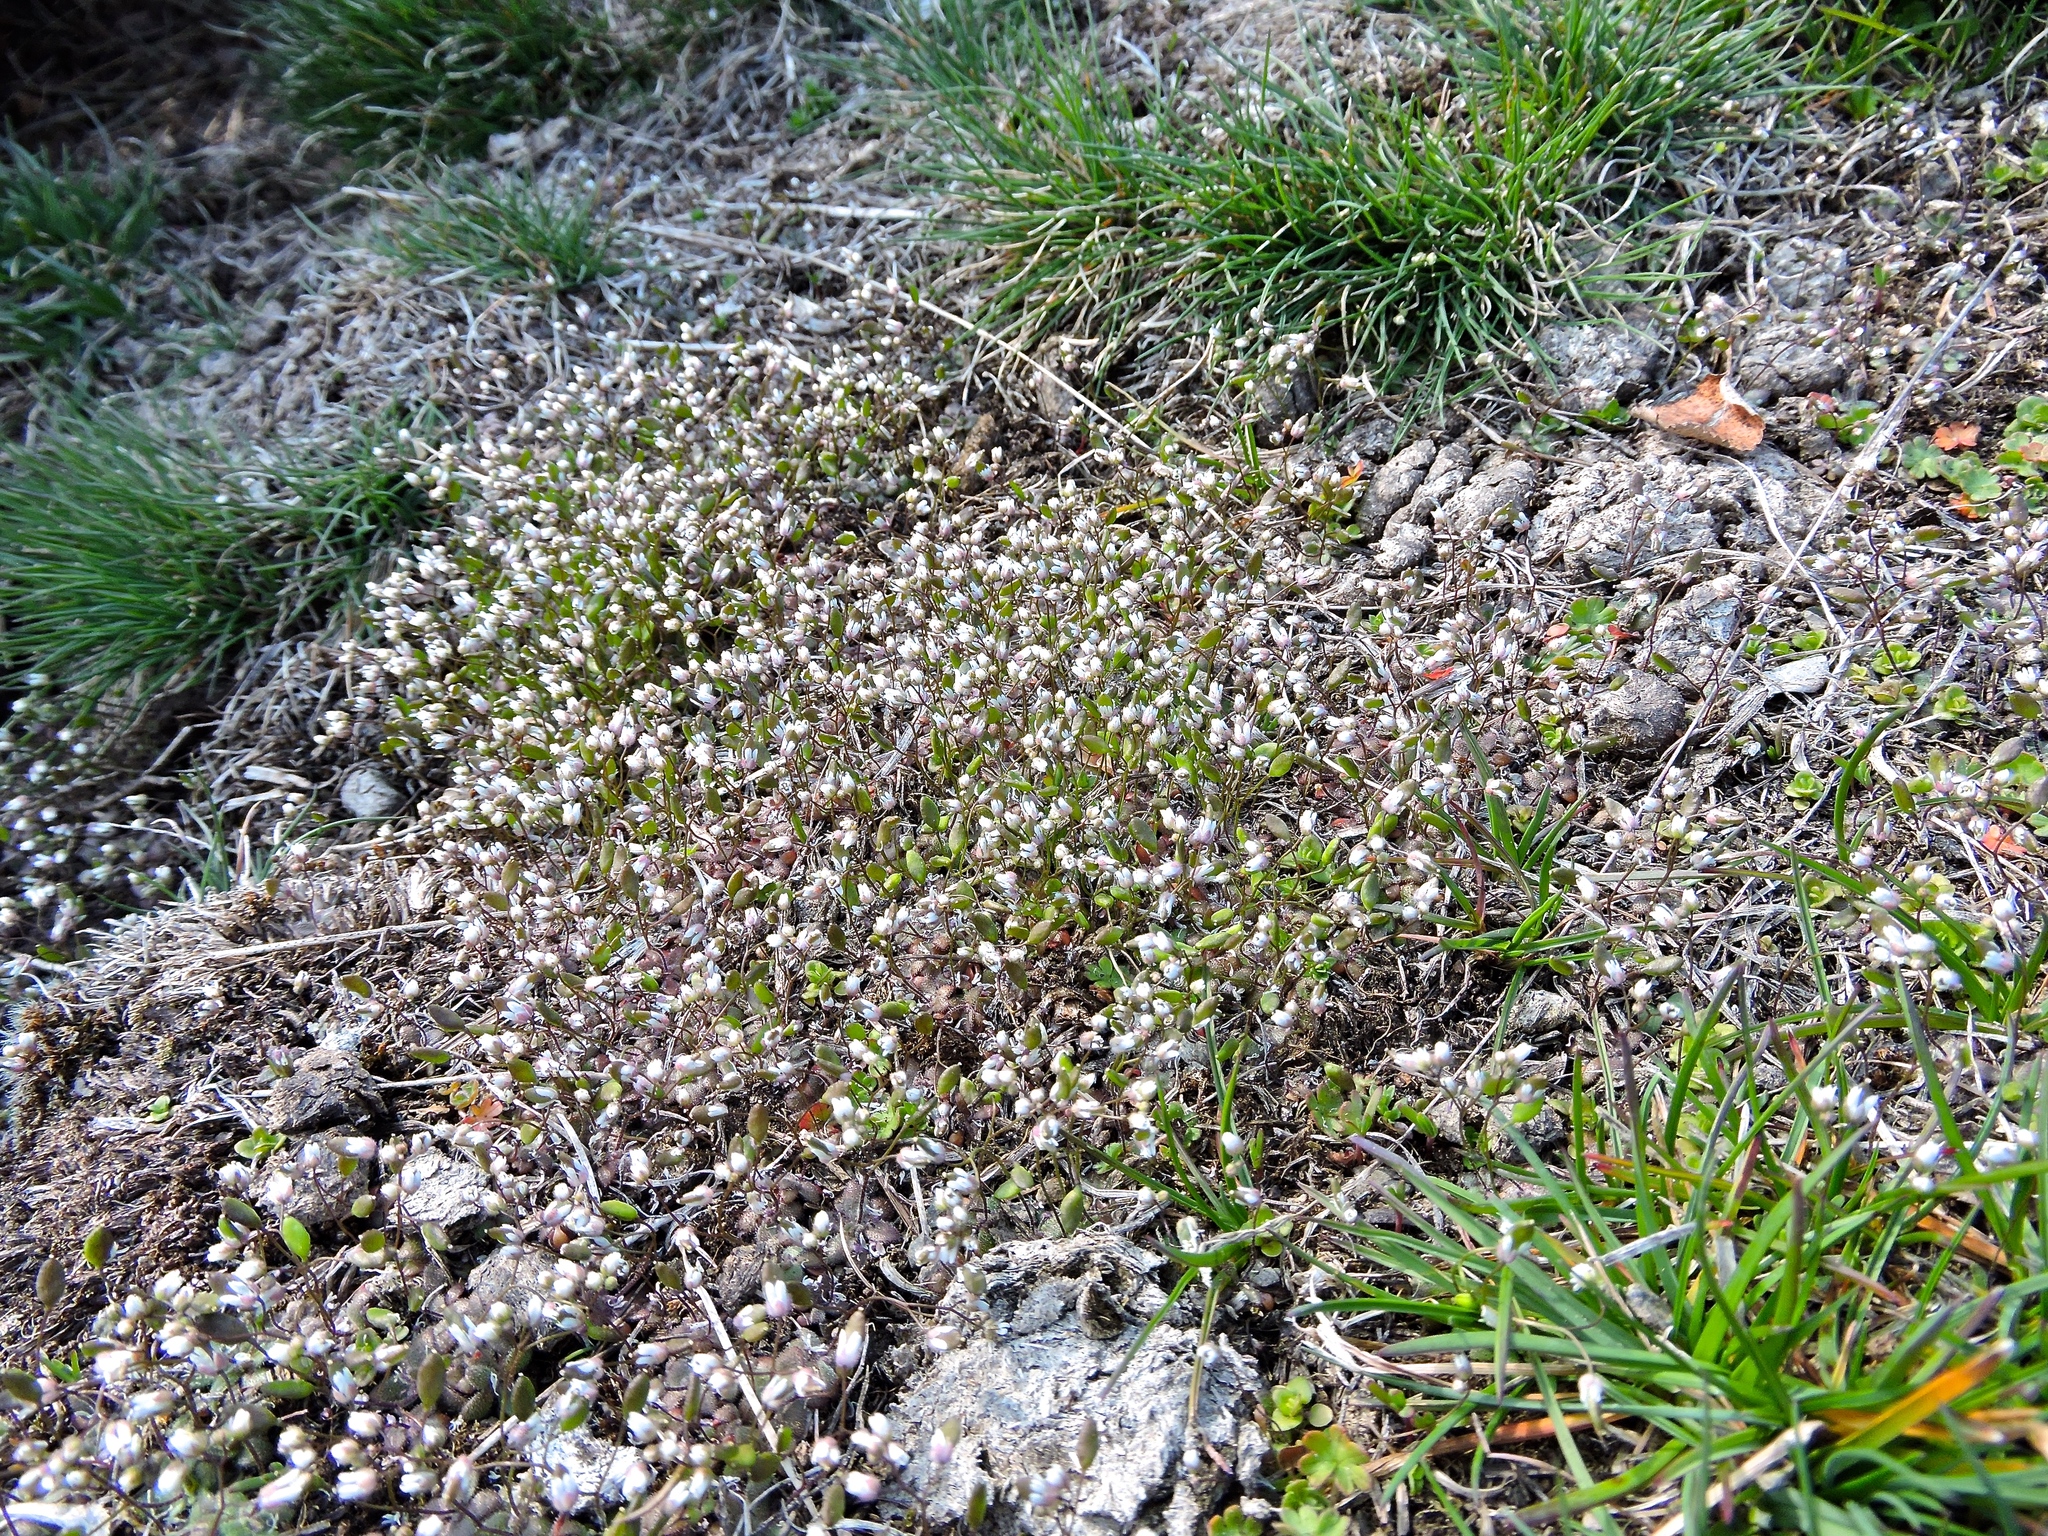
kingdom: Plantae
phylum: Tracheophyta
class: Magnoliopsida
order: Brassicales
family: Brassicaceae
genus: Draba
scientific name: Draba verna
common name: Spring draba
